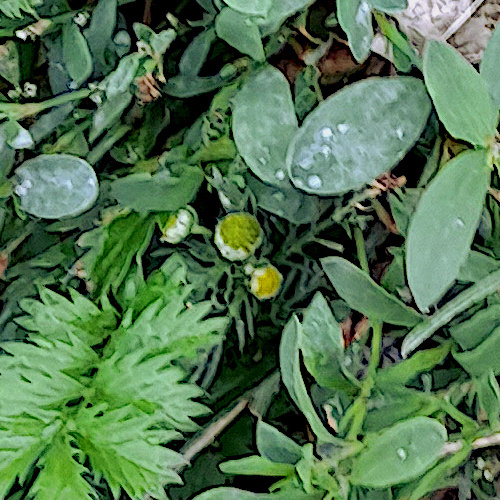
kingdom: Plantae
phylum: Tracheophyta
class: Magnoliopsida
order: Asterales
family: Asteraceae
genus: Matricaria
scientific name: Matricaria discoidea
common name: Disc mayweed
